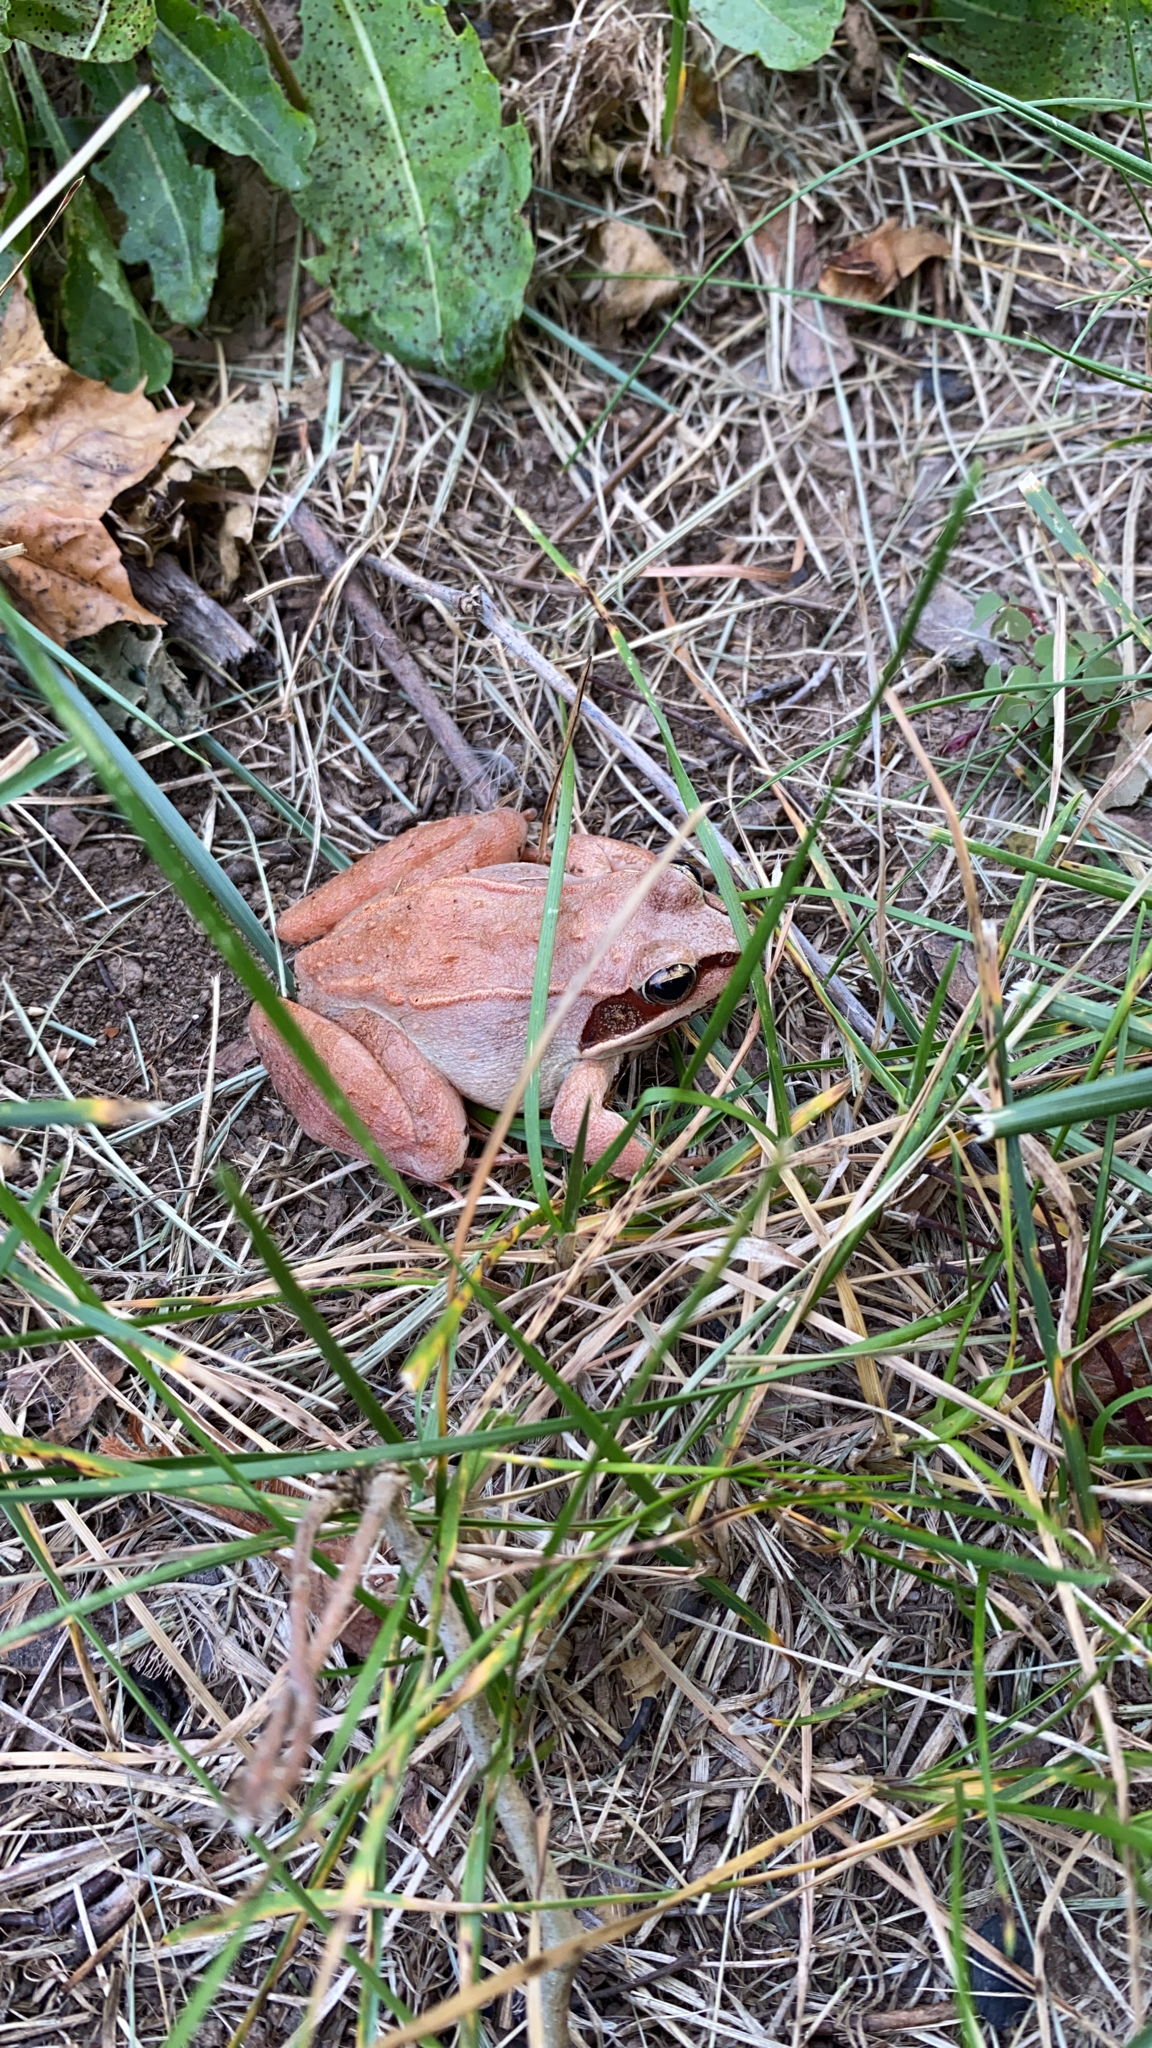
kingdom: Animalia
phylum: Chordata
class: Amphibia
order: Anura
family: Ranidae
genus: Lithobates
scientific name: Lithobates sylvaticus
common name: Wood frog
